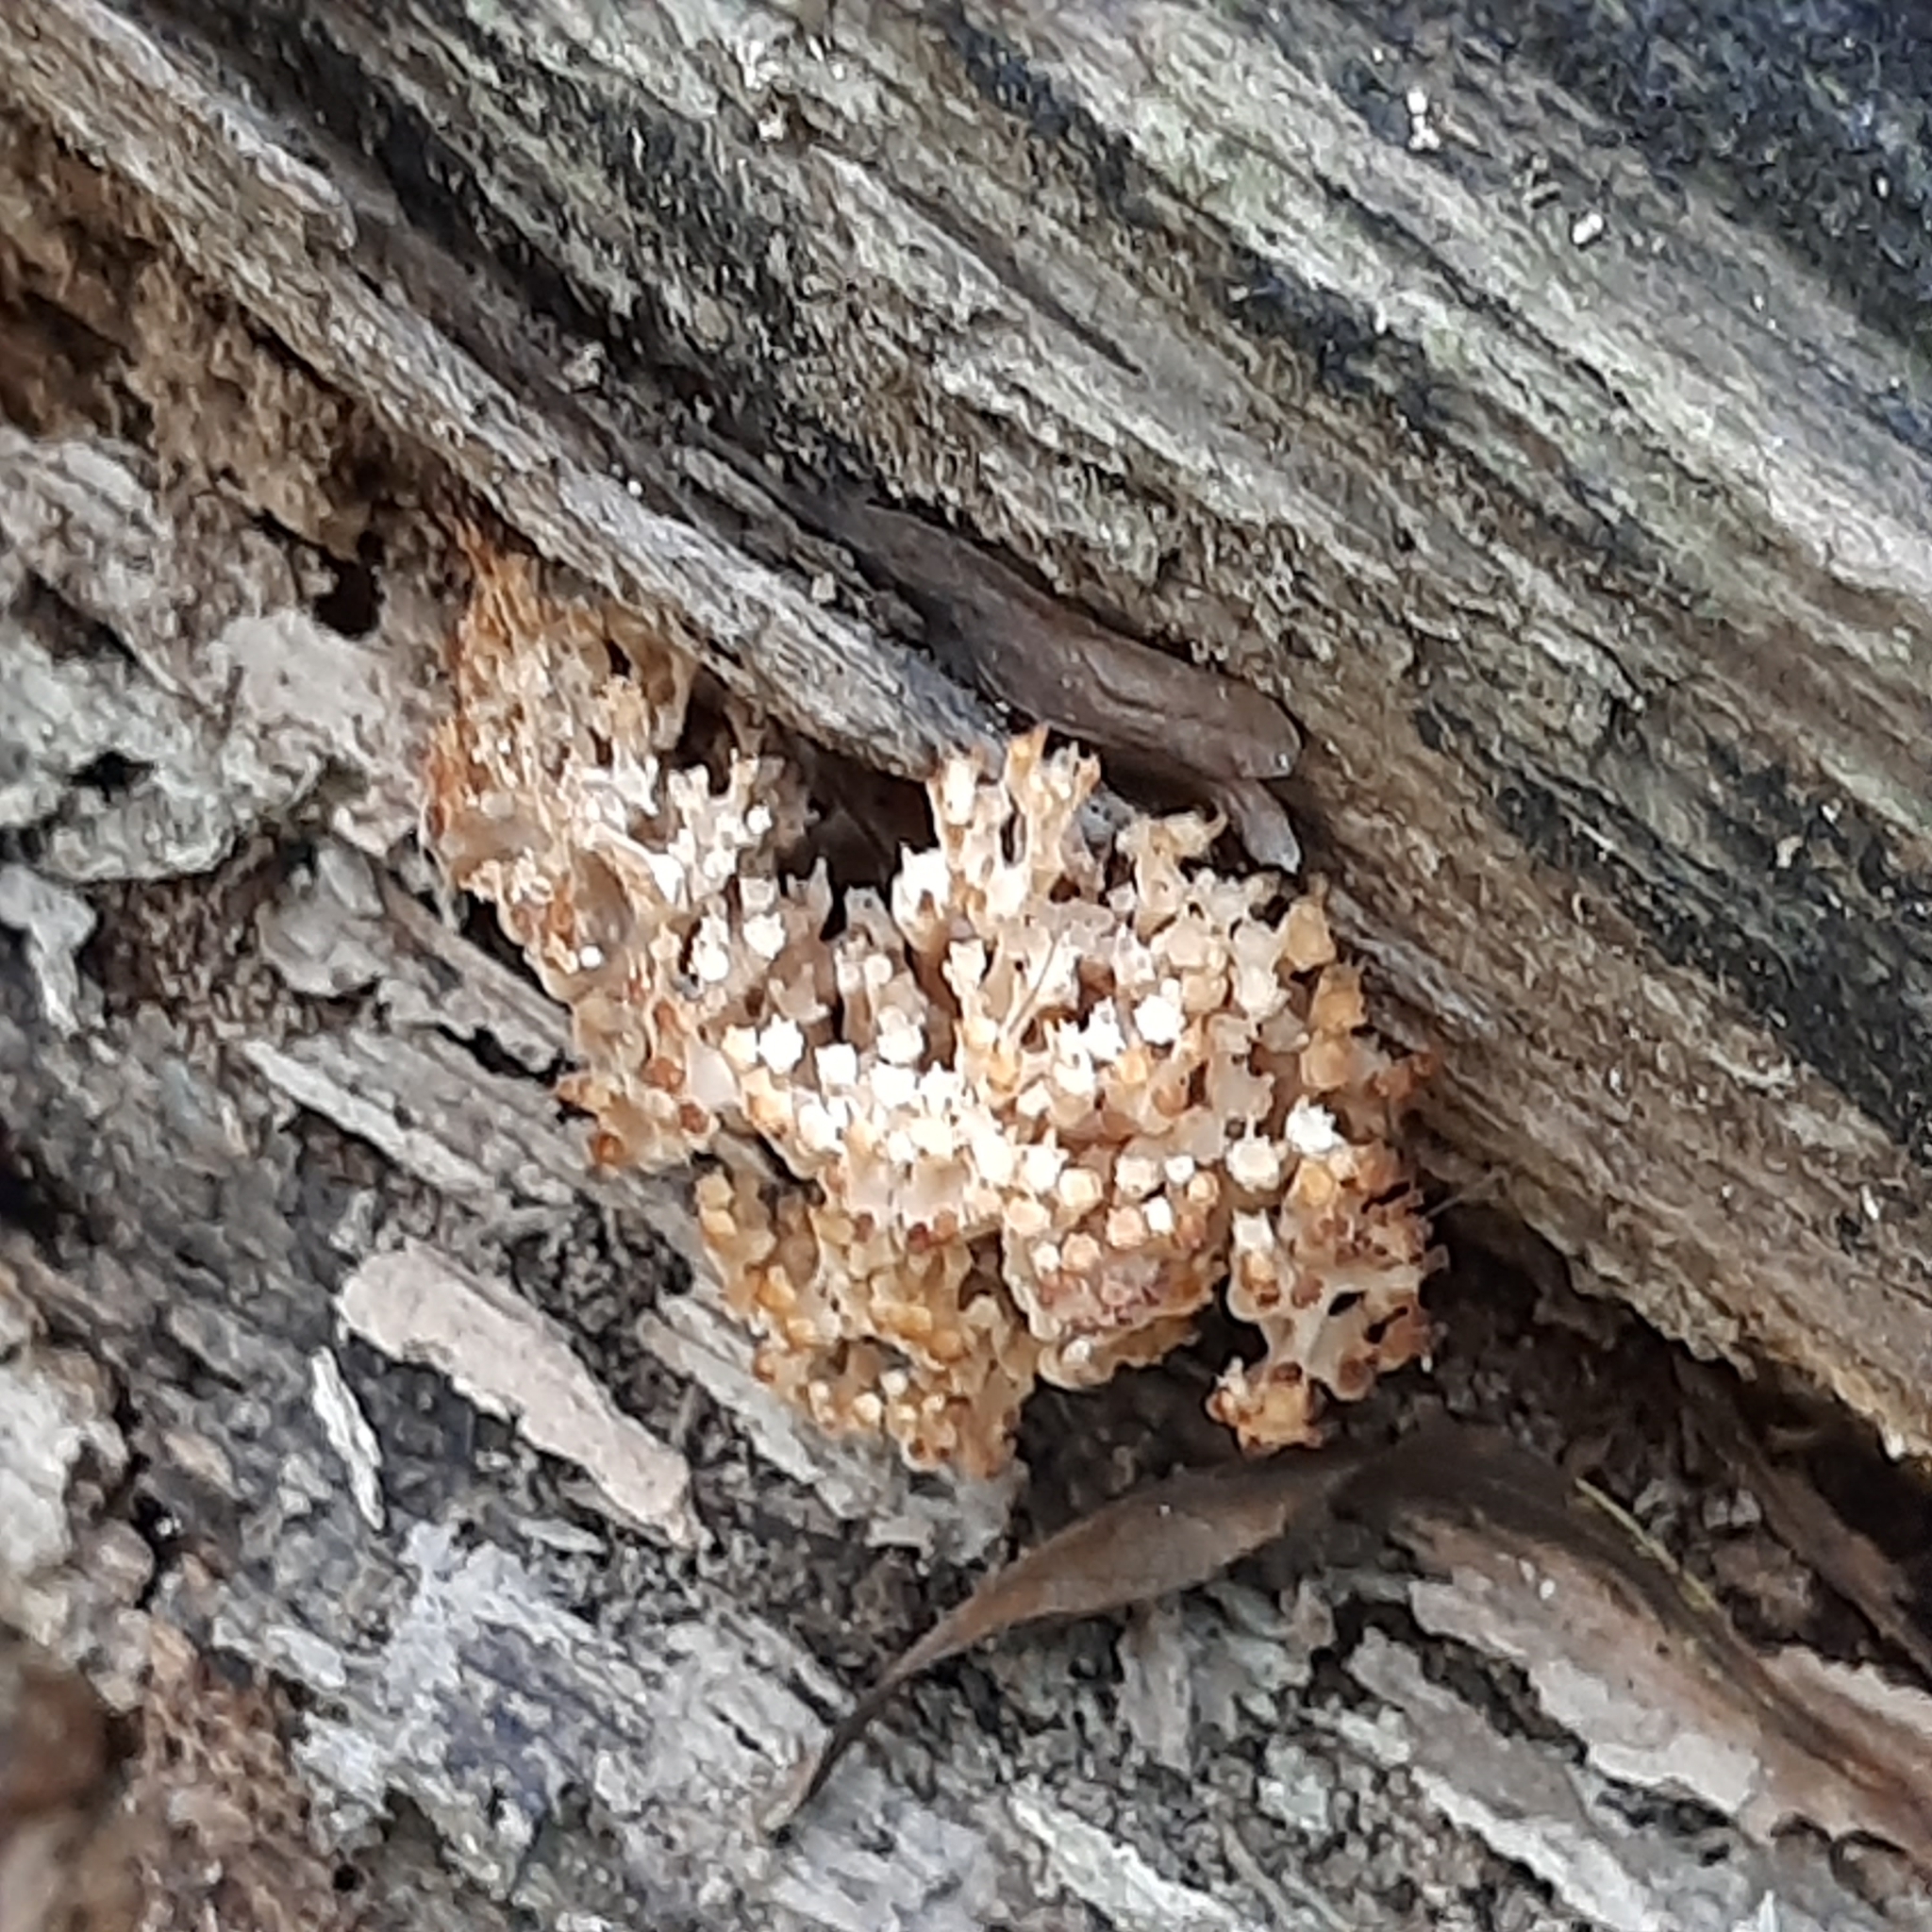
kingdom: Fungi
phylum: Basidiomycota
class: Agaricomycetes
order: Russulales
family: Auriscalpiaceae
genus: Artomyces
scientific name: Artomyces pyxidatus
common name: Crown-tipped coral fungus
